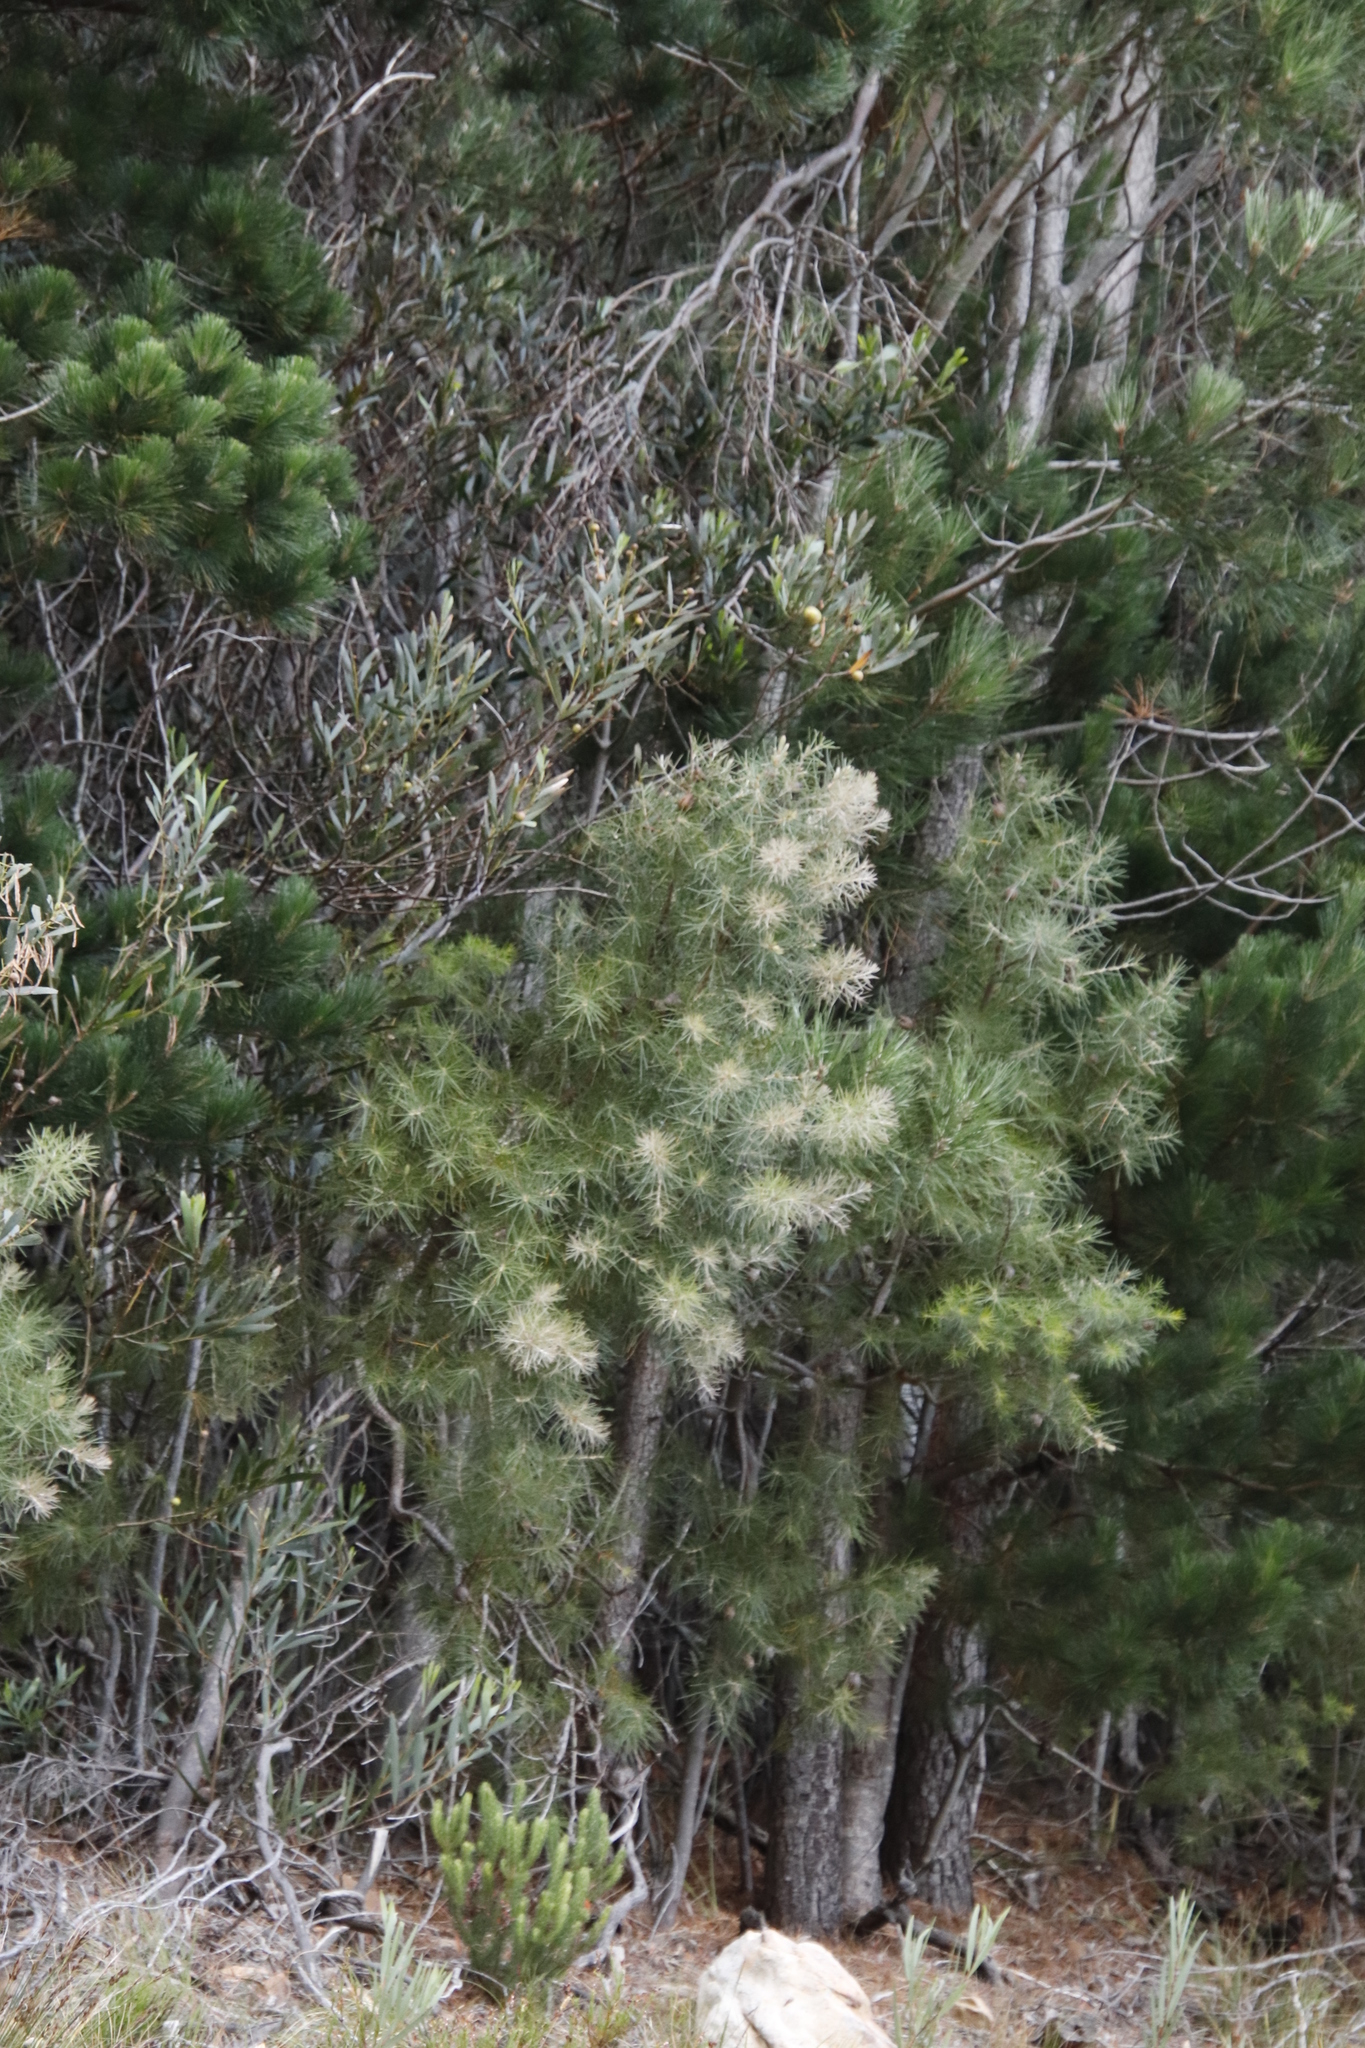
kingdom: Plantae
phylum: Tracheophyta
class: Magnoliopsida
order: Proteales
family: Proteaceae
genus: Hakea
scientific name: Hakea gibbosa
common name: Rock hakea
